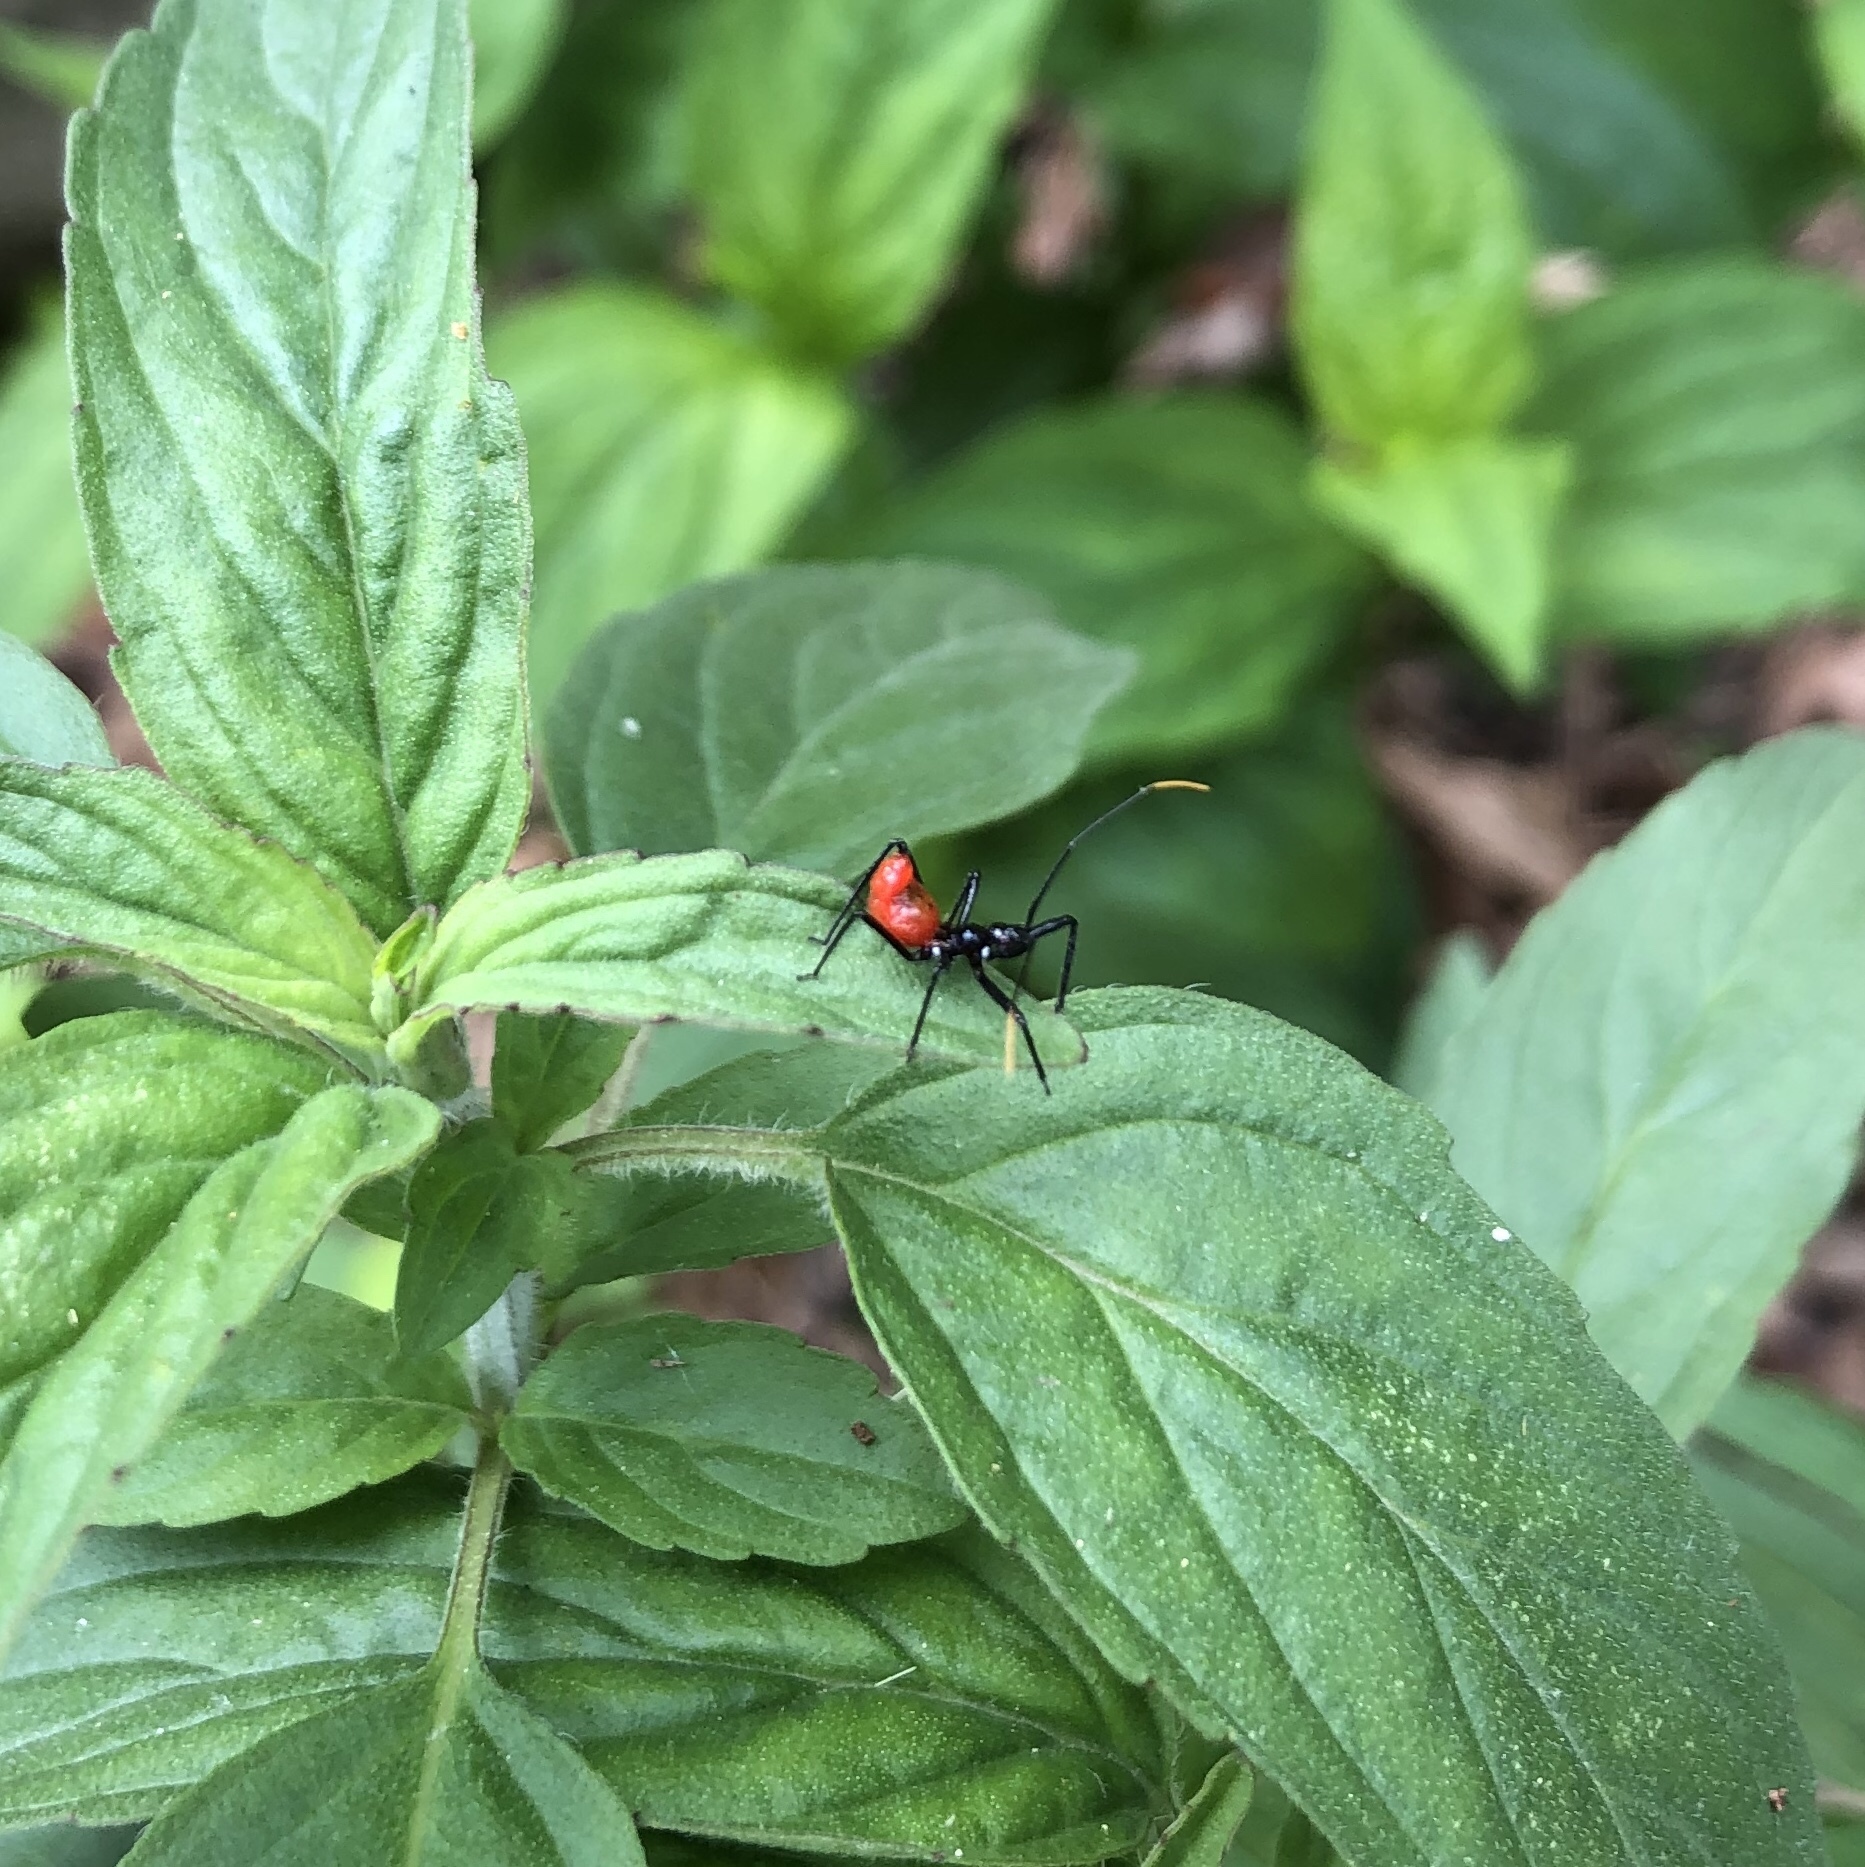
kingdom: Animalia
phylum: Arthropoda
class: Insecta
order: Hemiptera
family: Reduviidae
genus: Arilus
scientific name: Arilus cristatus
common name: North american wheel bug
